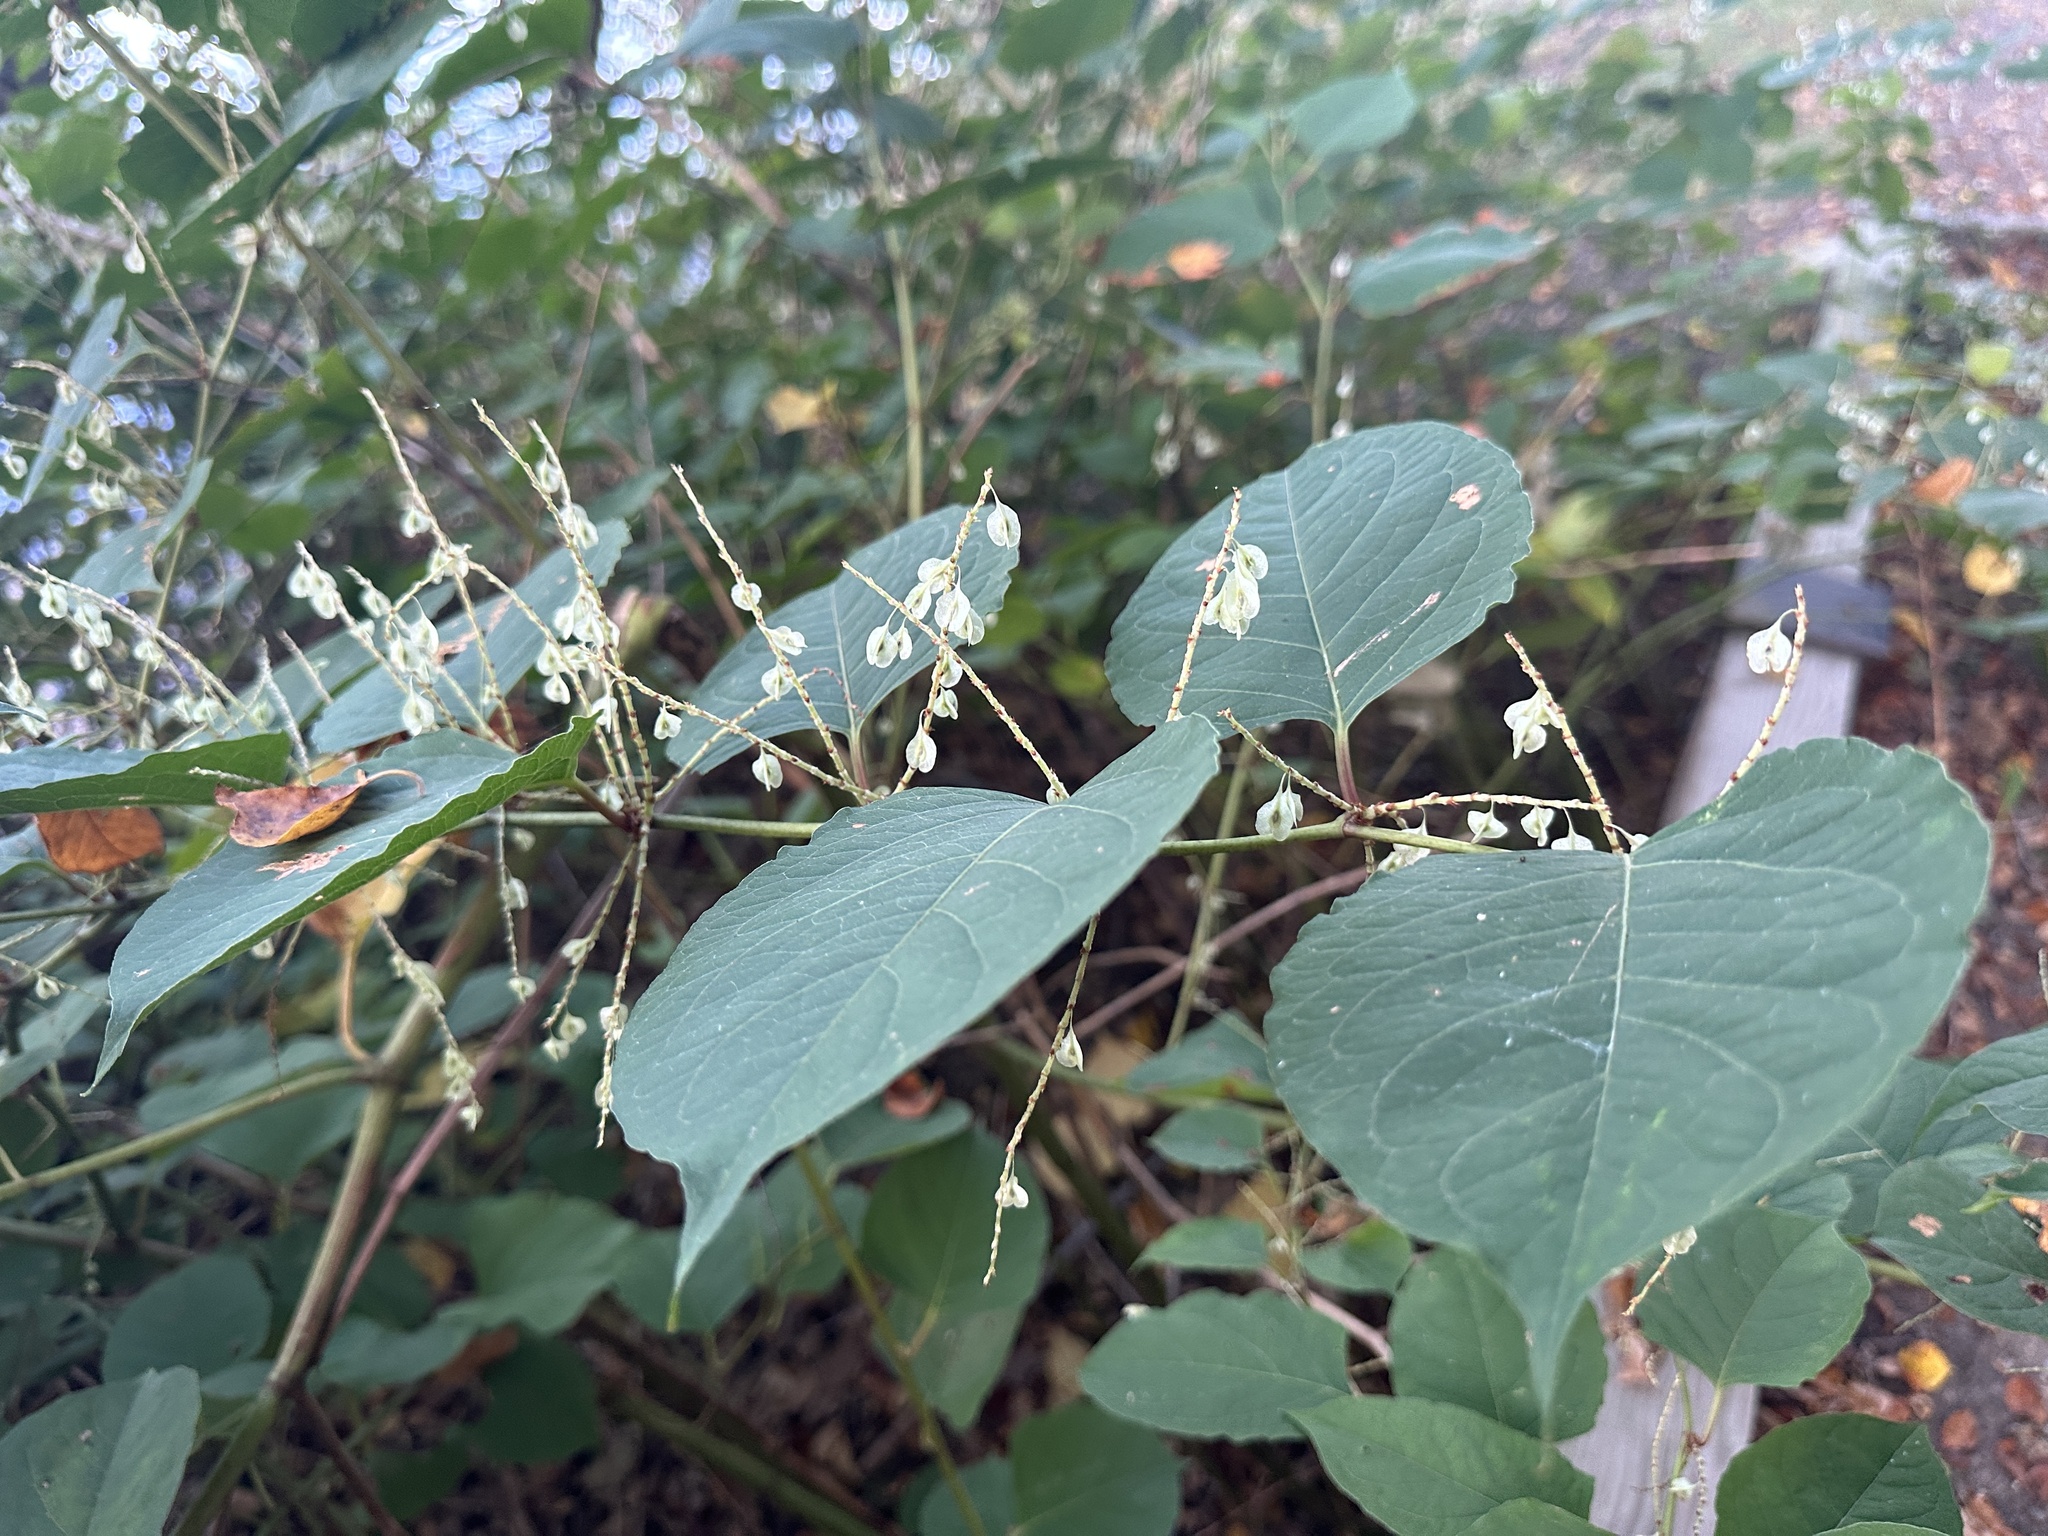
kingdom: Plantae
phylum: Tracheophyta
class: Magnoliopsida
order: Caryophyllales
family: Polygonaceae
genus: Reynoutria
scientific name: Reynoutria japonica
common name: Japanese knotweed
